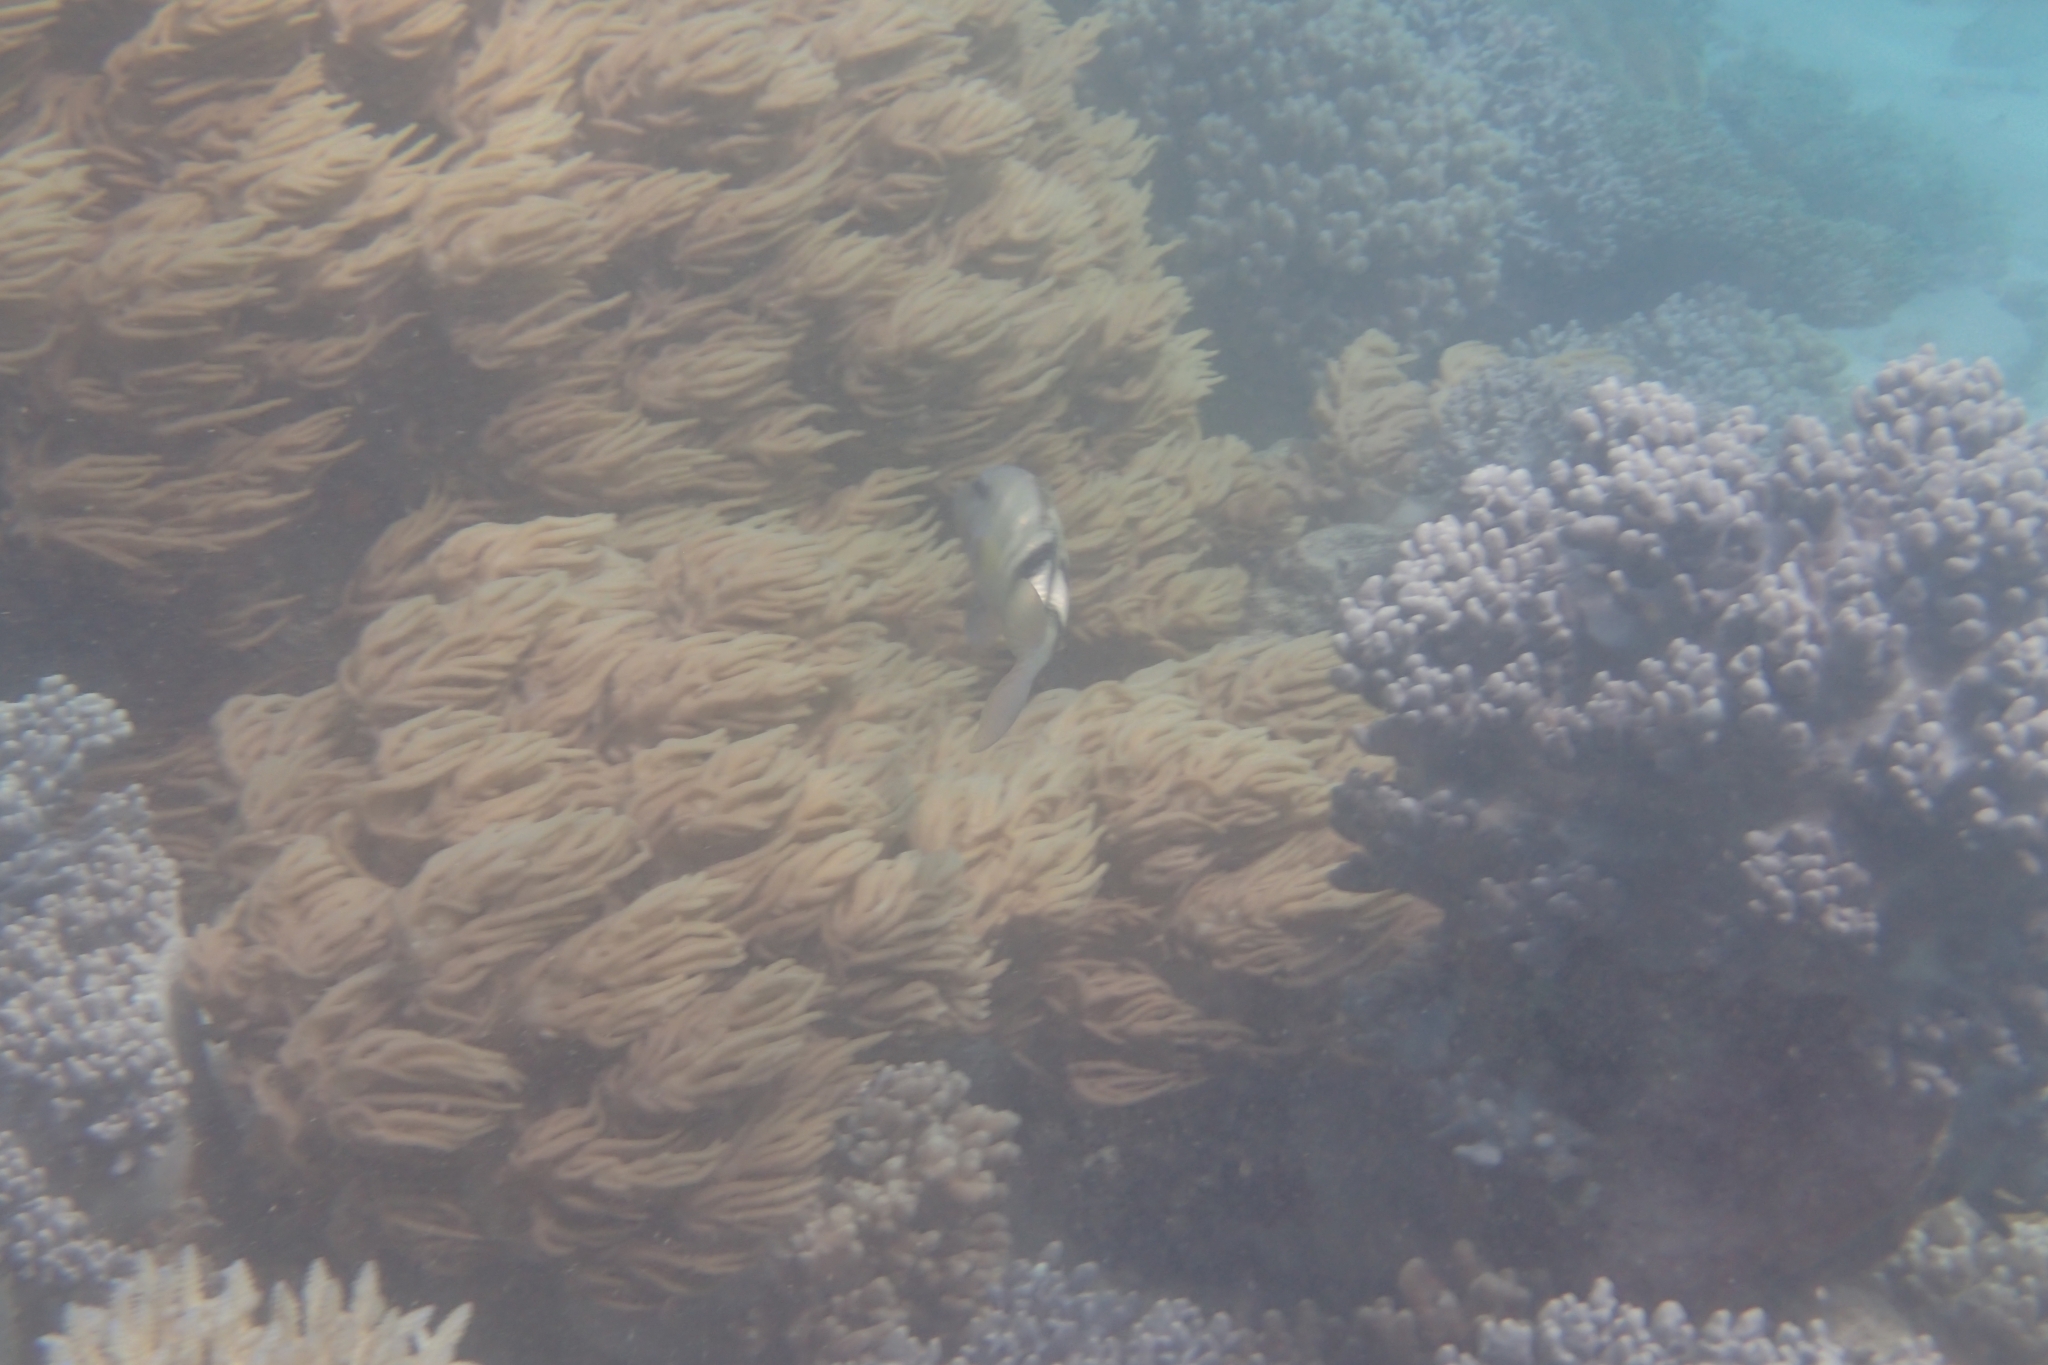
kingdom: Animalia
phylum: Chordata
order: Perciformes
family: Mullidae
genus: Parupeneus
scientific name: Parupeneus multifasciatus
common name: Manybar goatfish
